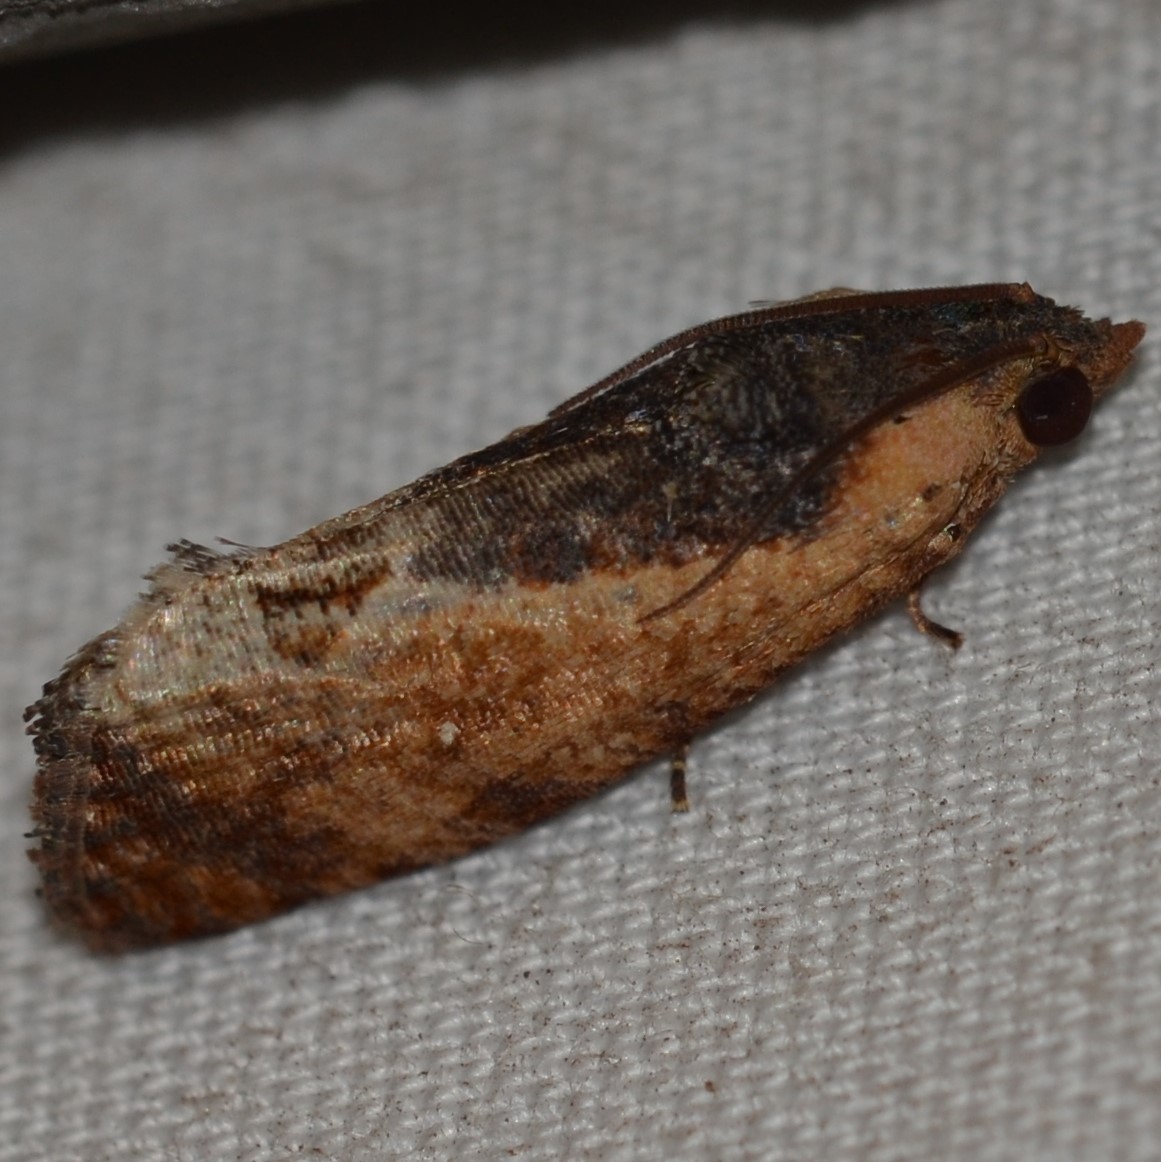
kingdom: Animalia
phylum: Arthropoda
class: Insecta
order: Lepidoptera
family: Tortricidae
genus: Cryptophlebia
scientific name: Cryptophlebia ombrodelta
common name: Litchi fruit moth
